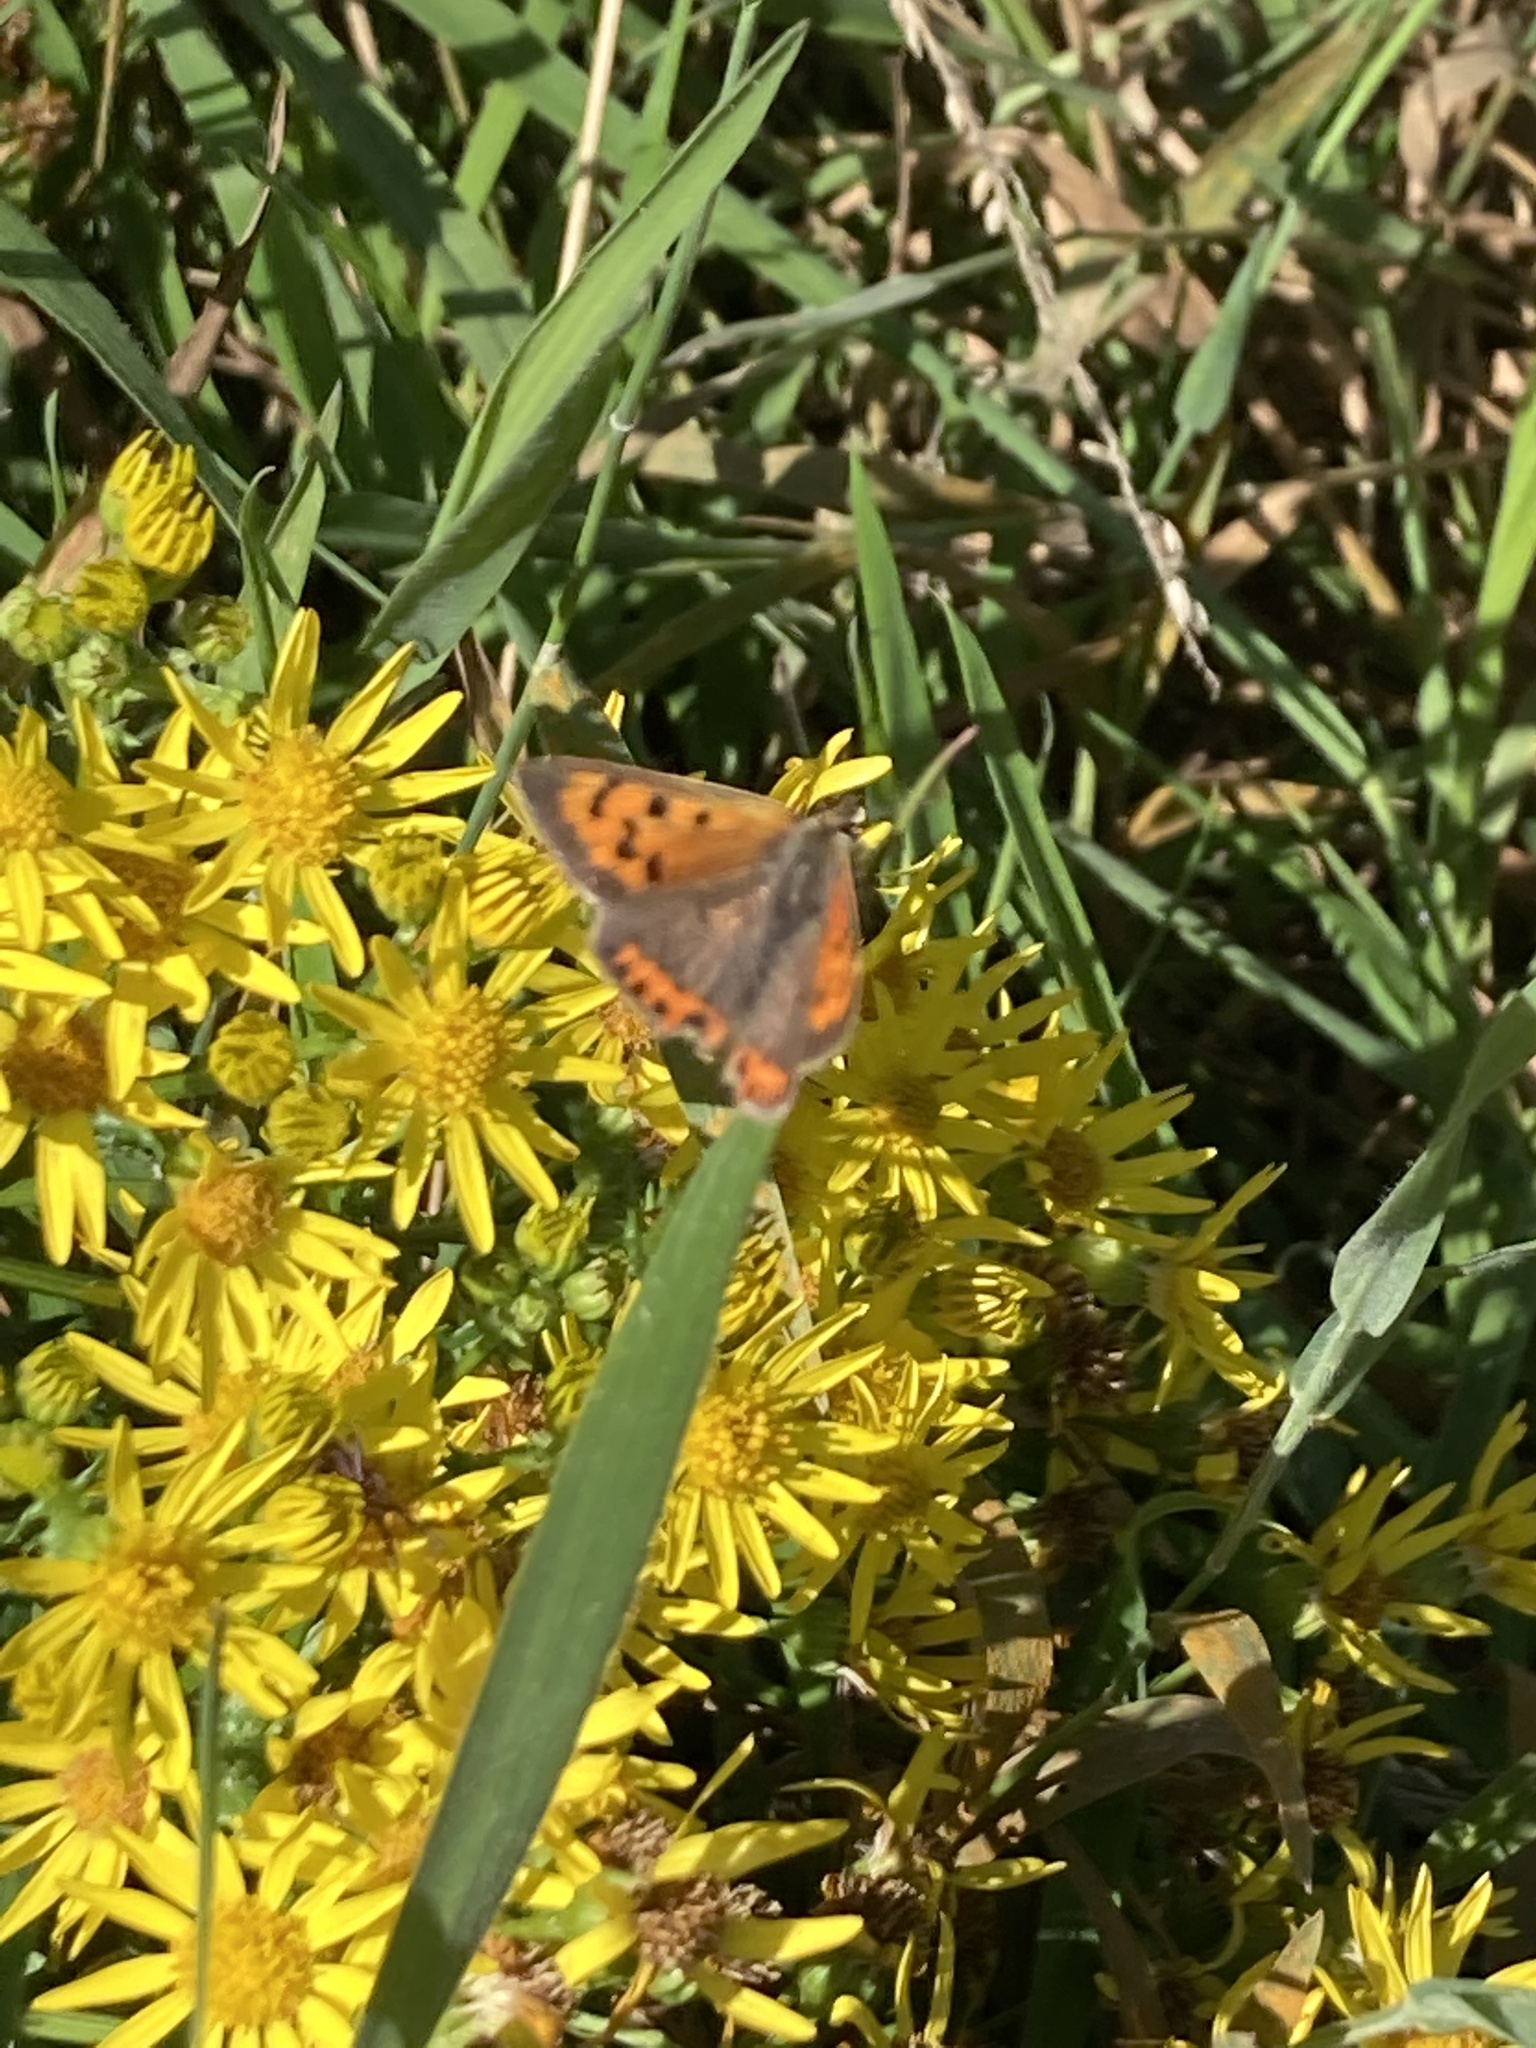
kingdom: Animalia
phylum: Arthropoda
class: Insecta
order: Lepidoptera
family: Lycaenidae
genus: Lycaena
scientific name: Lycaena phlaeas
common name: Small copper
